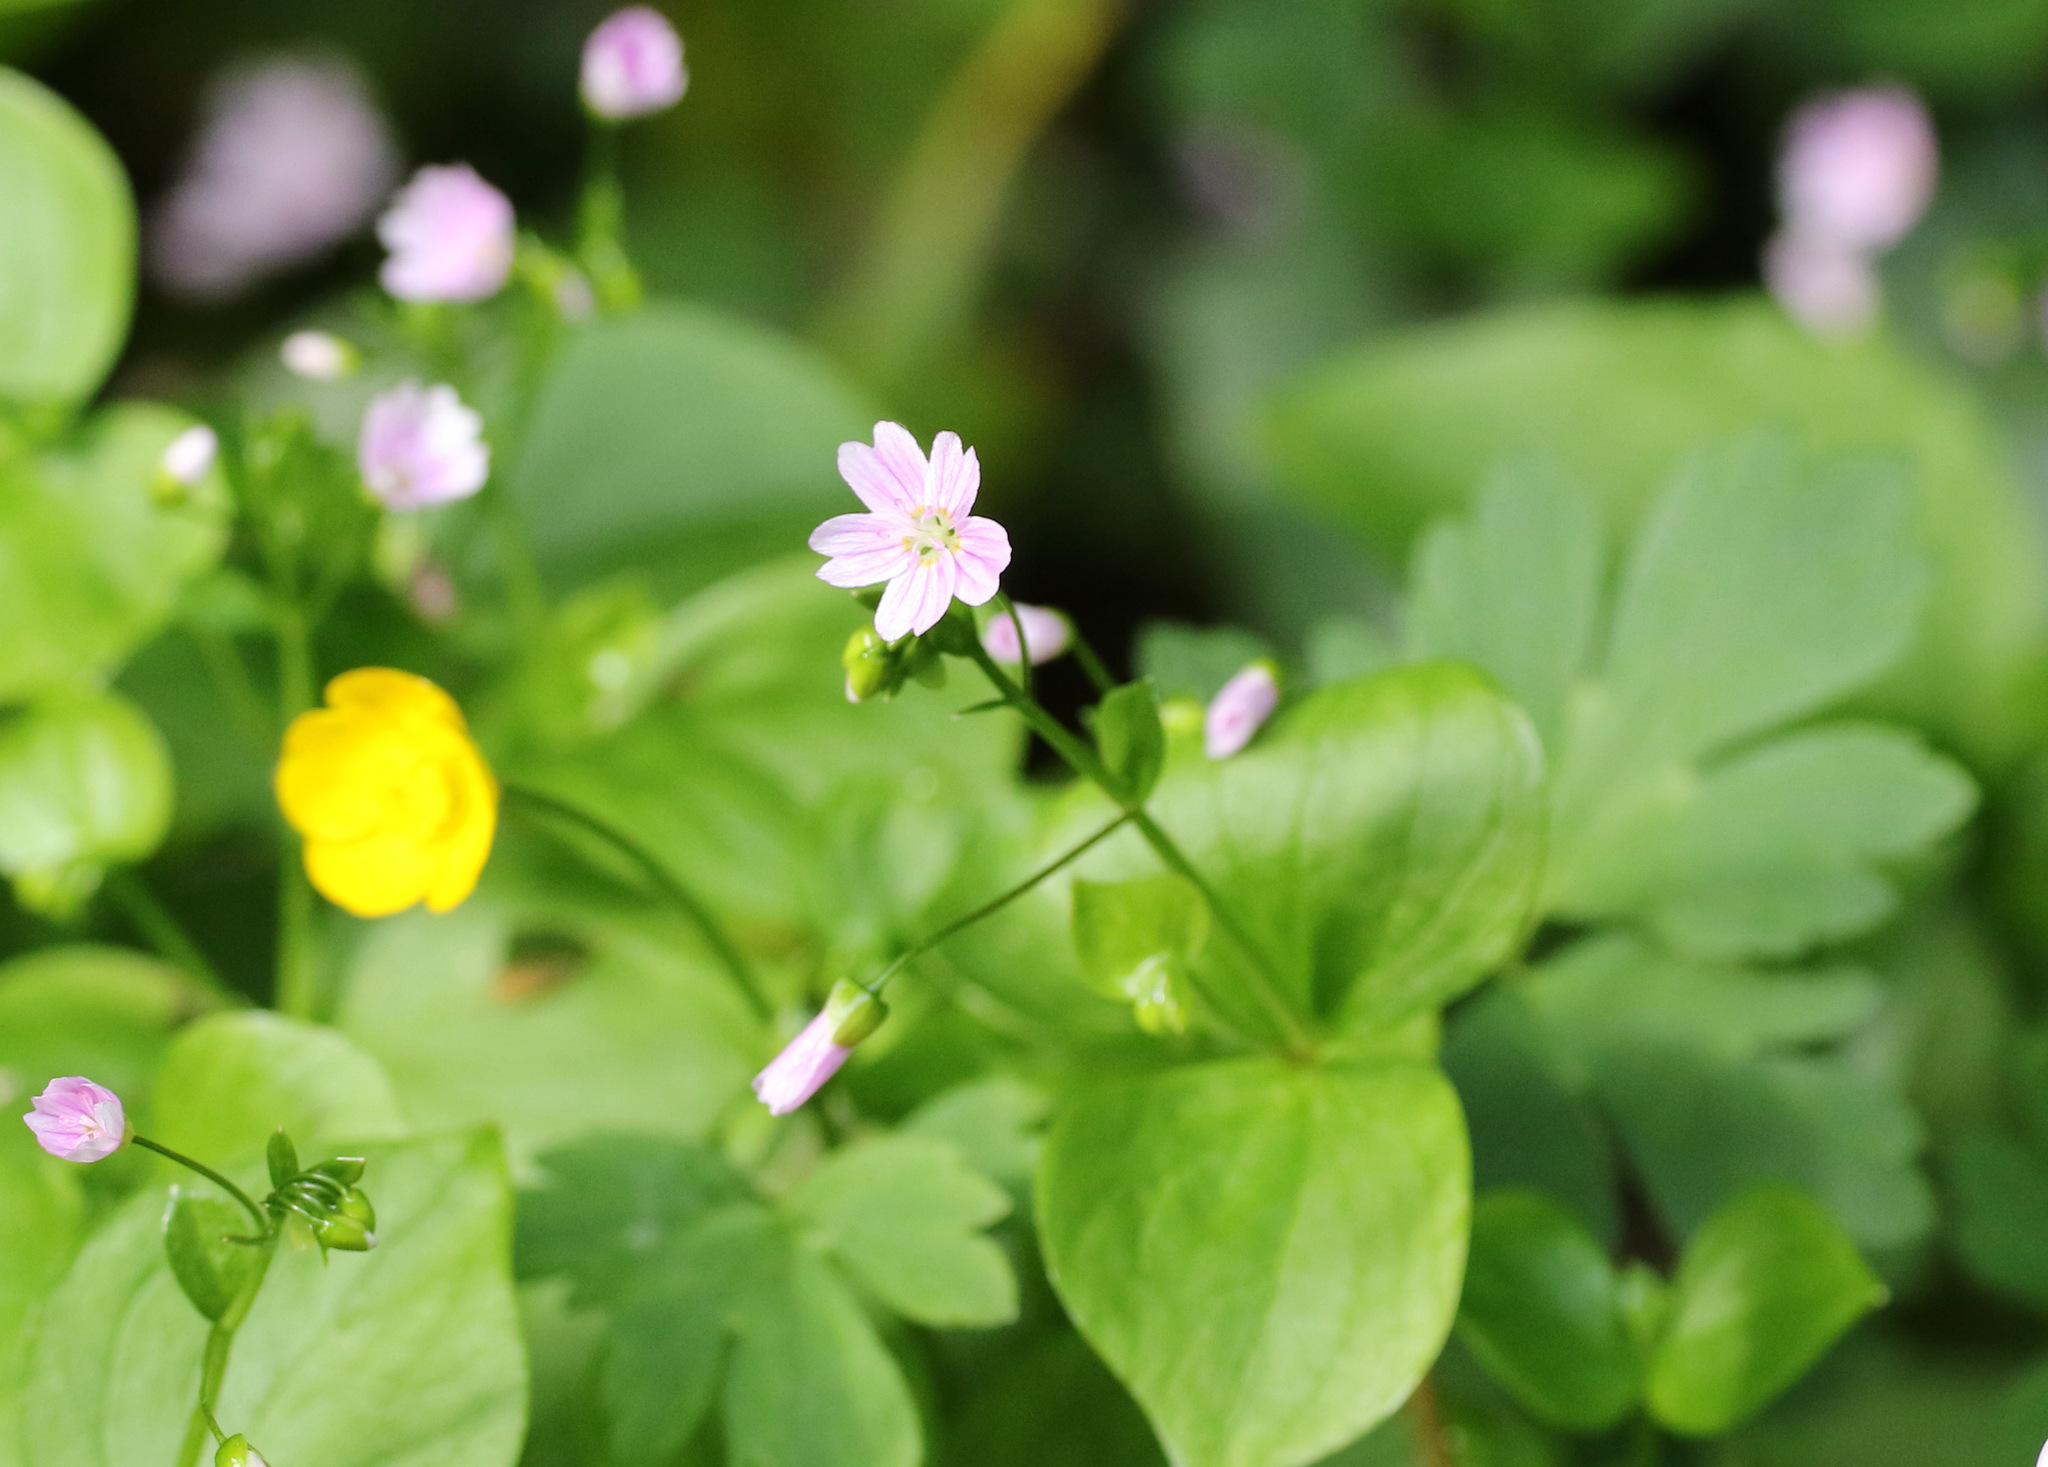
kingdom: Plantae
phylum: Tracheophyta
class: Magnoliopsida
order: Caryophyllales
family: Montiaceae
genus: Claytonia
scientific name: Claytonia sibirica
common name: Pink purslane
